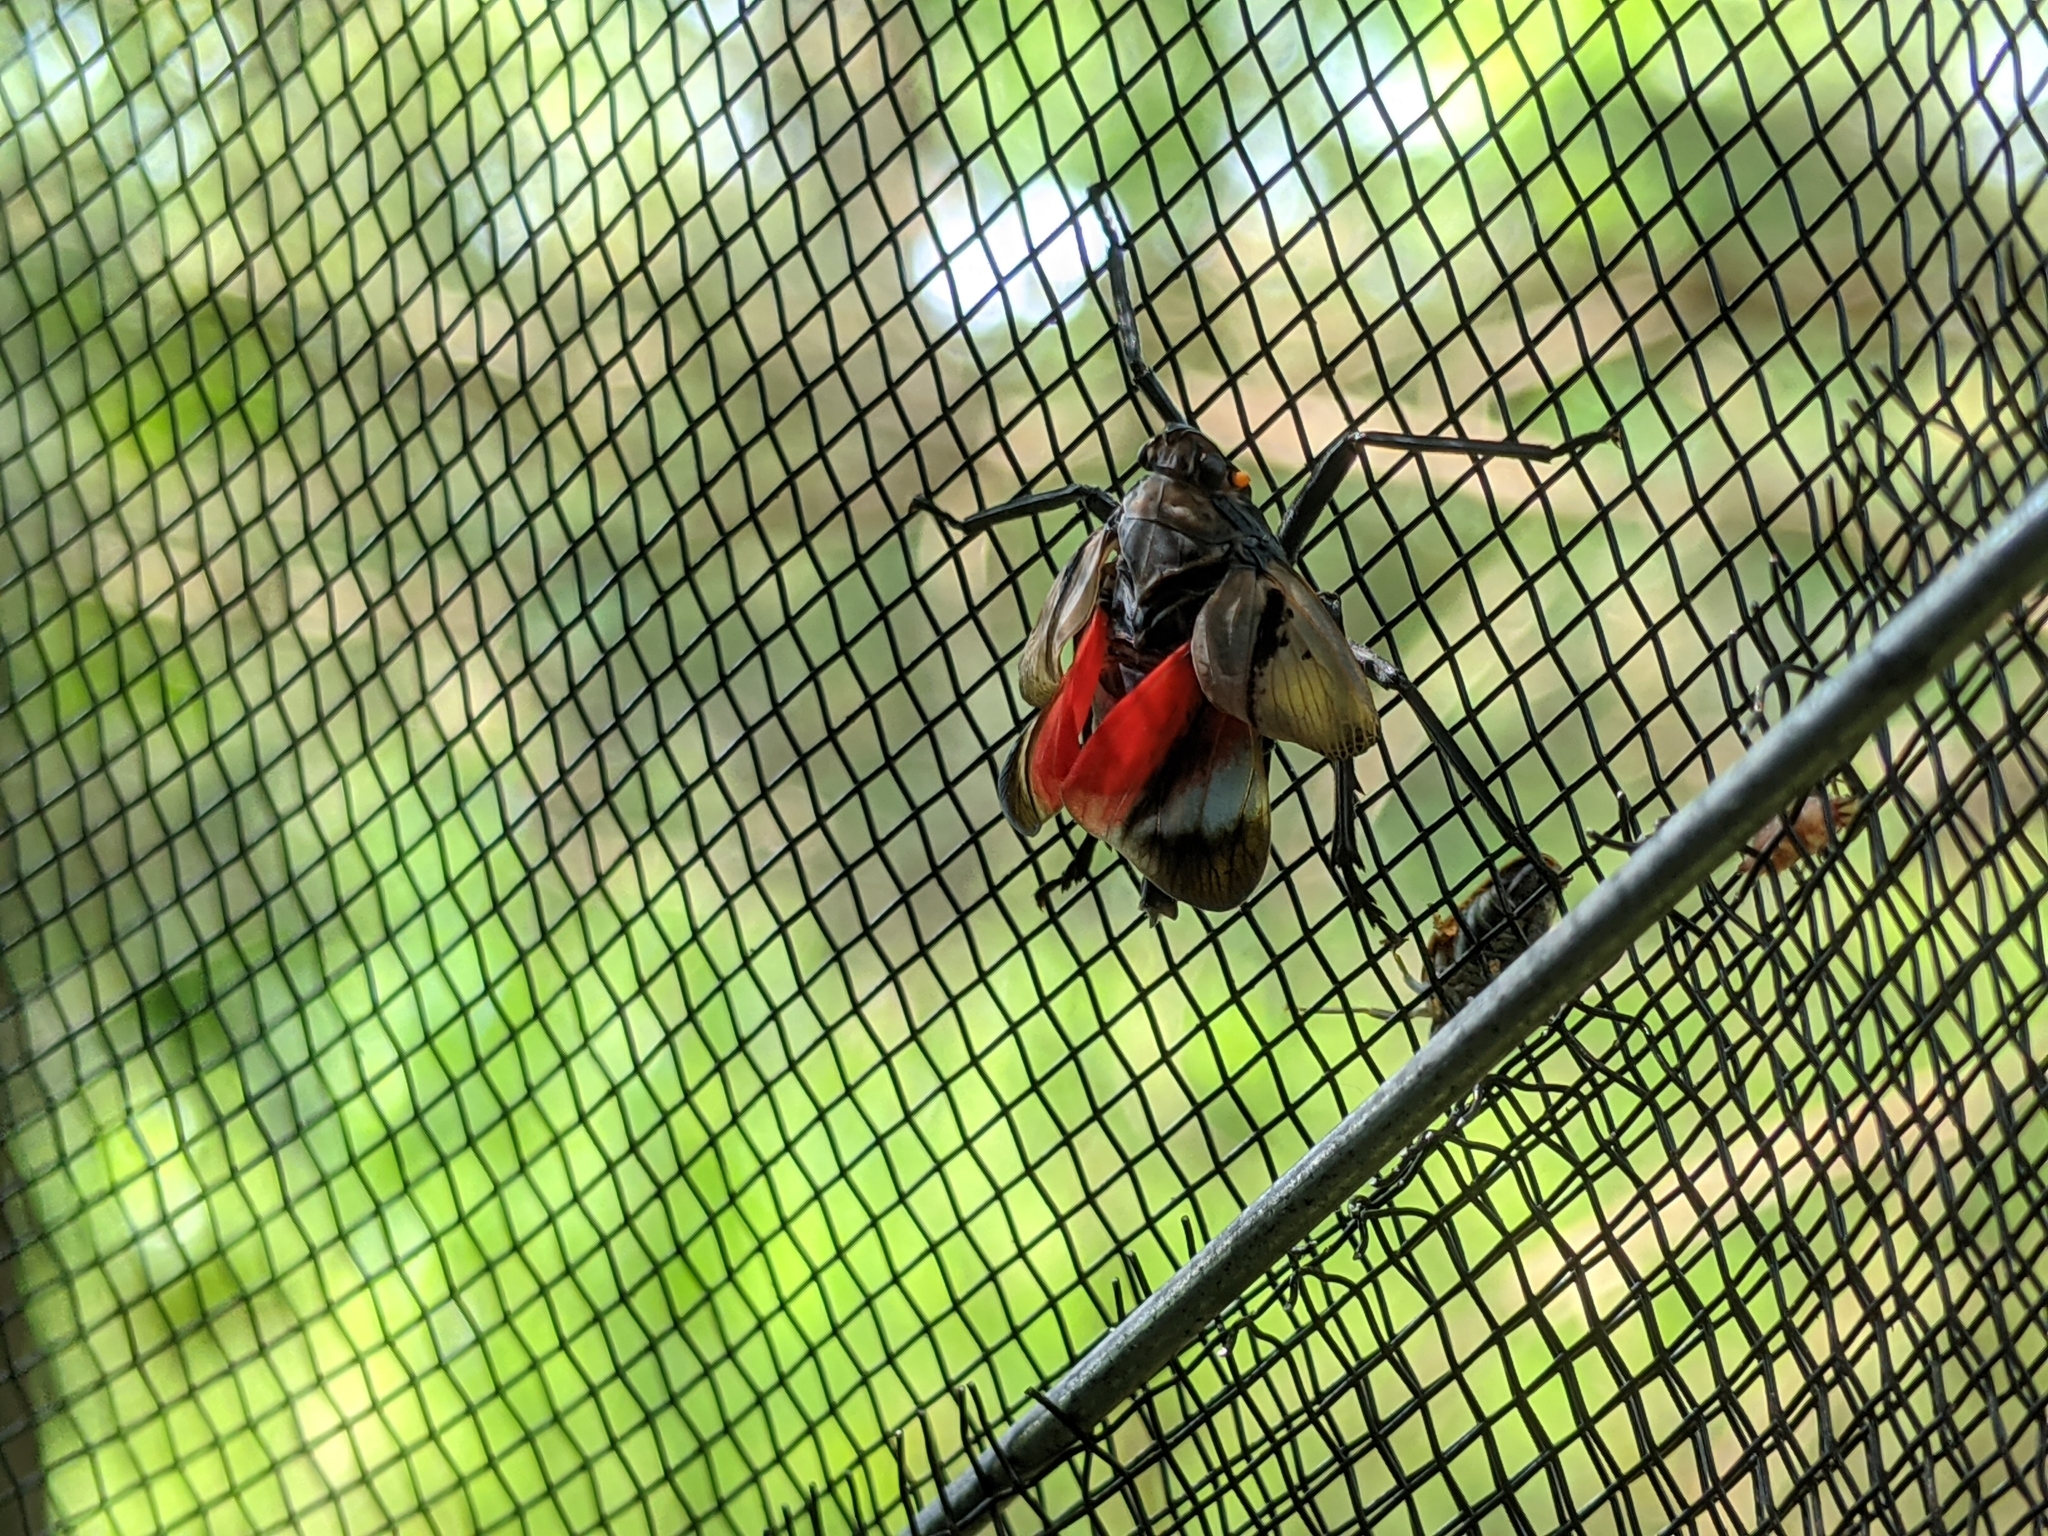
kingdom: Animalia
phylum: Arthropoda
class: Insecta
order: Hemiptera
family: Fulgoridae
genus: Lycorma
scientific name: Lycorma delicatula
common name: Spotted lanternfly
